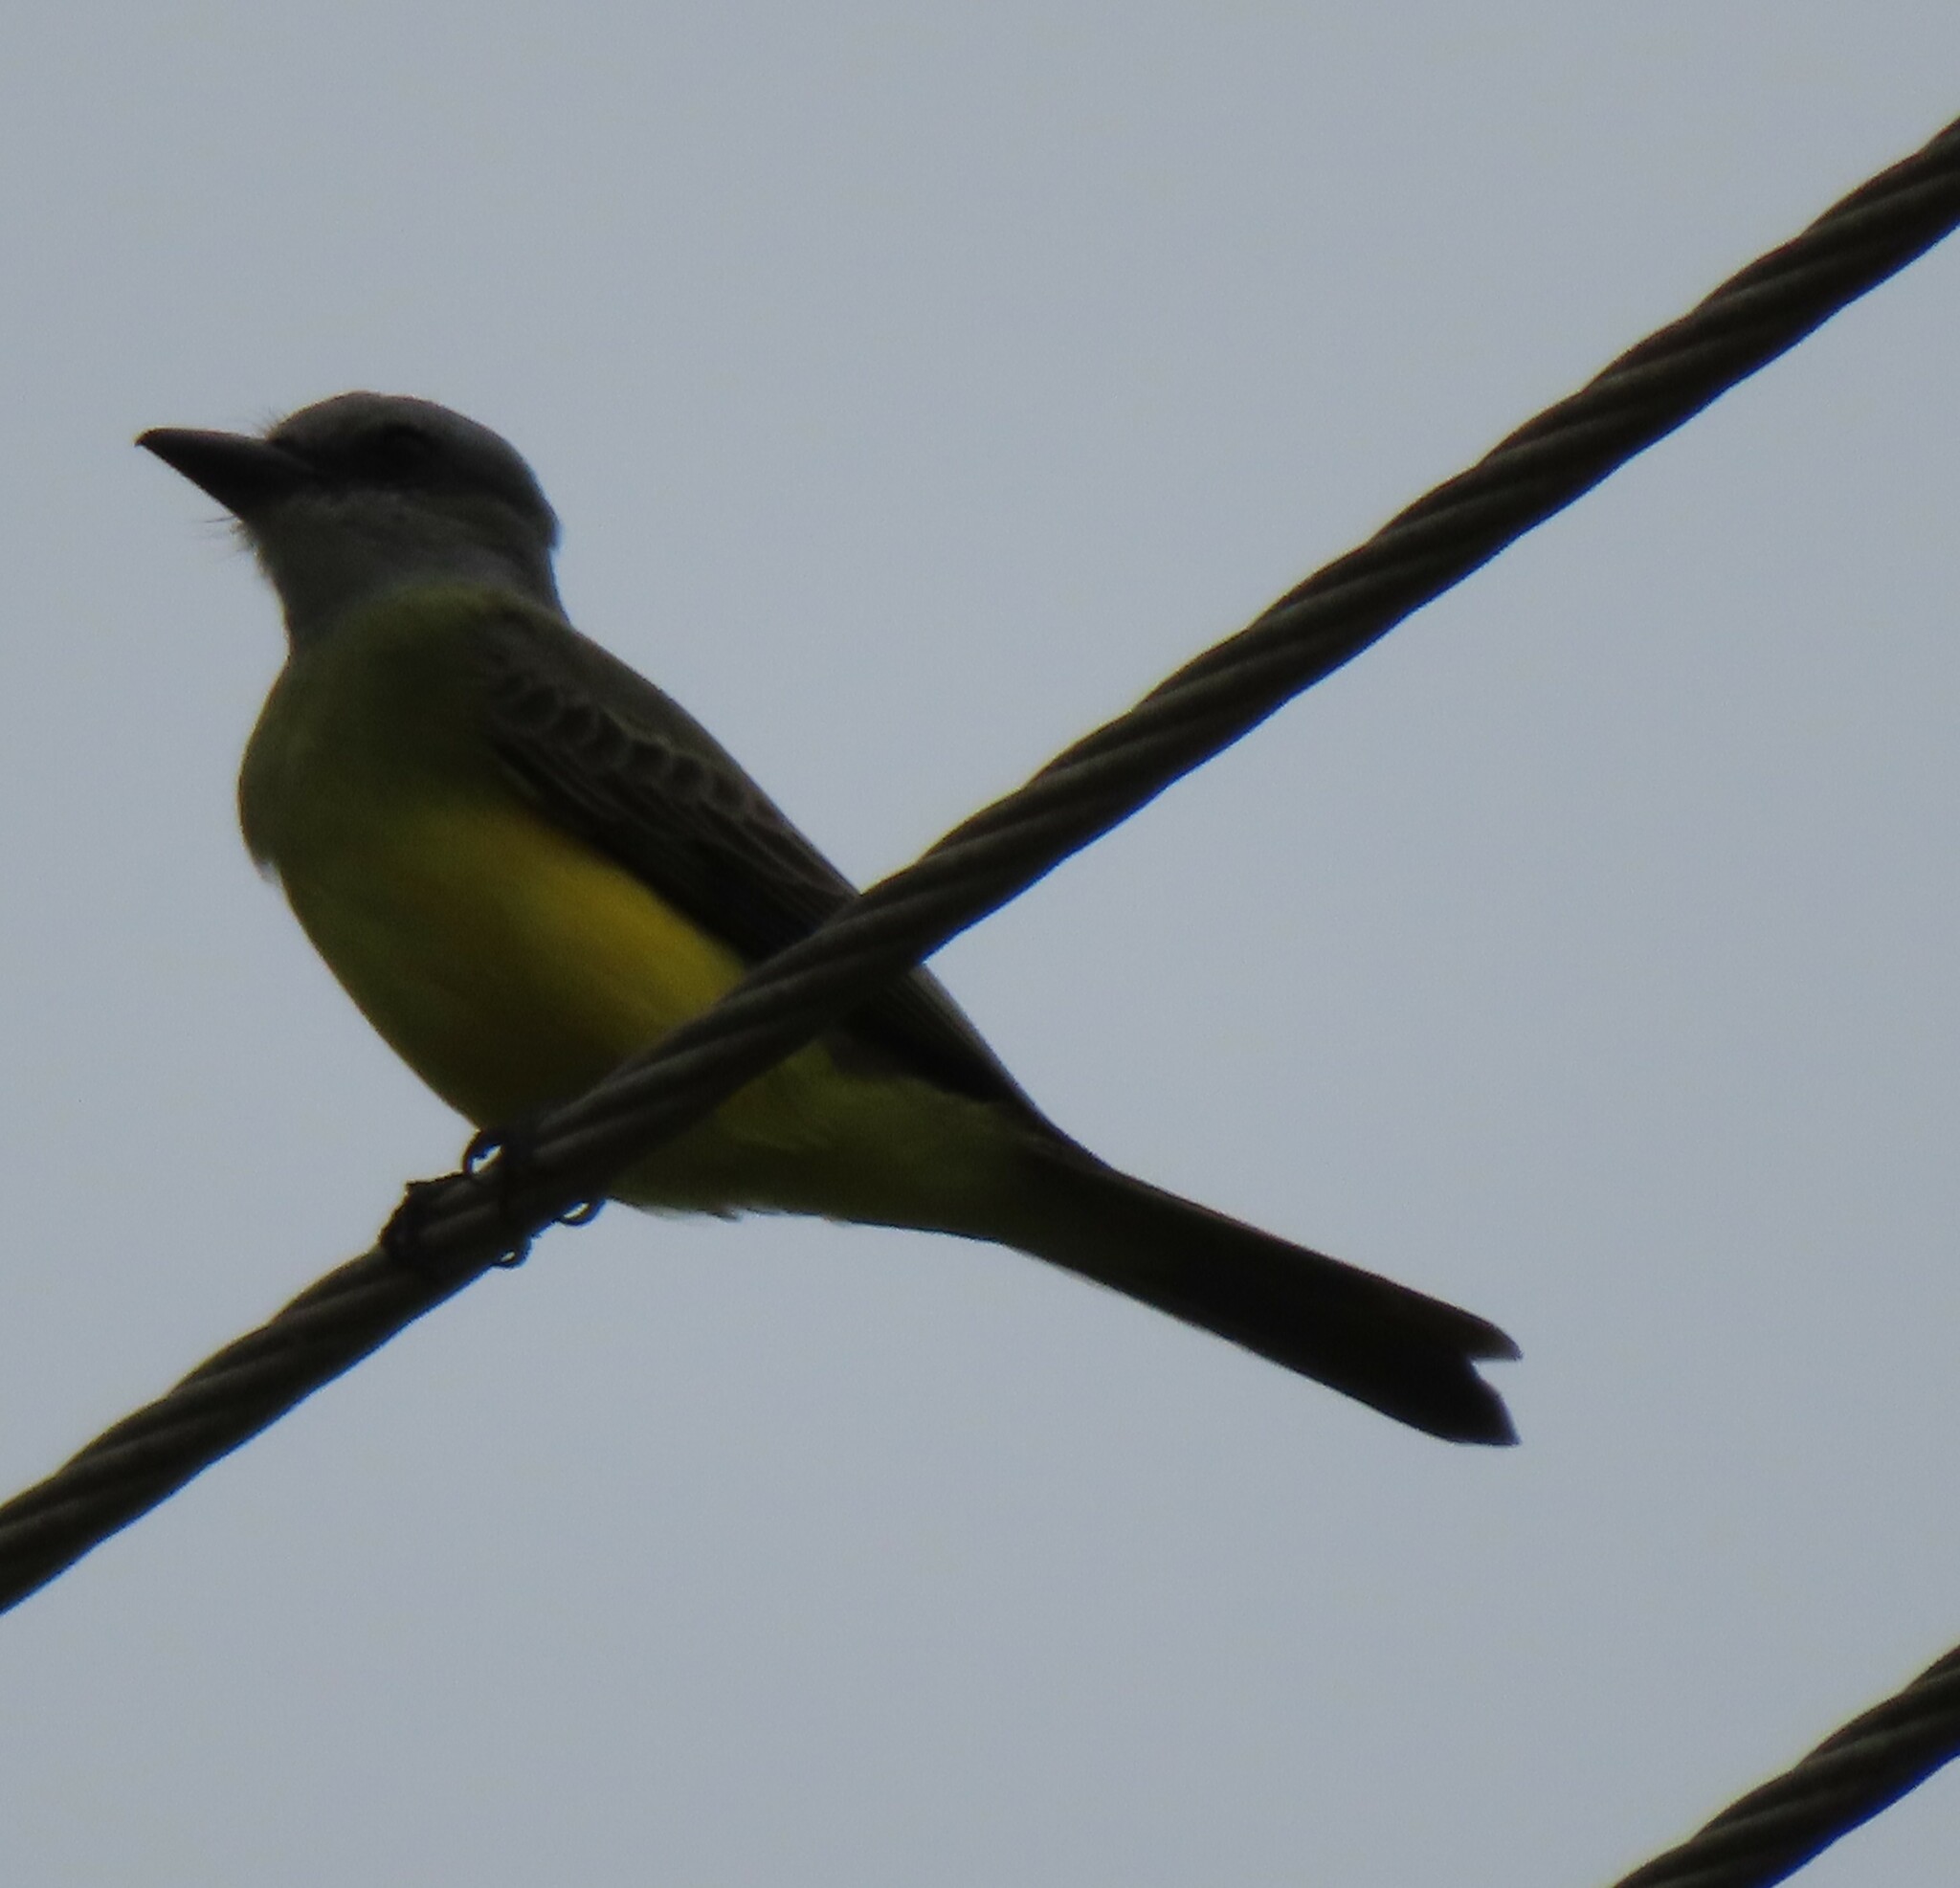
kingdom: Animalia
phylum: Chordata
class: Aves
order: Passeriformes
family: Tyrannidae
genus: Tyrannus
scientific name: Tyrannus melancholicus
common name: Tropical kingbird
